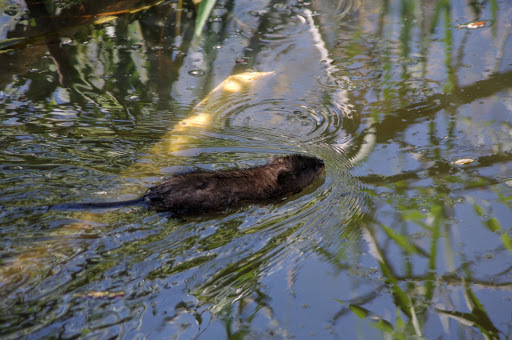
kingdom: Animalia
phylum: Chordata
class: Mammalia
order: Rodentia
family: Cricetidae
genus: Ondatra
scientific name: Ondatra zibethicus
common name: Muskrat
